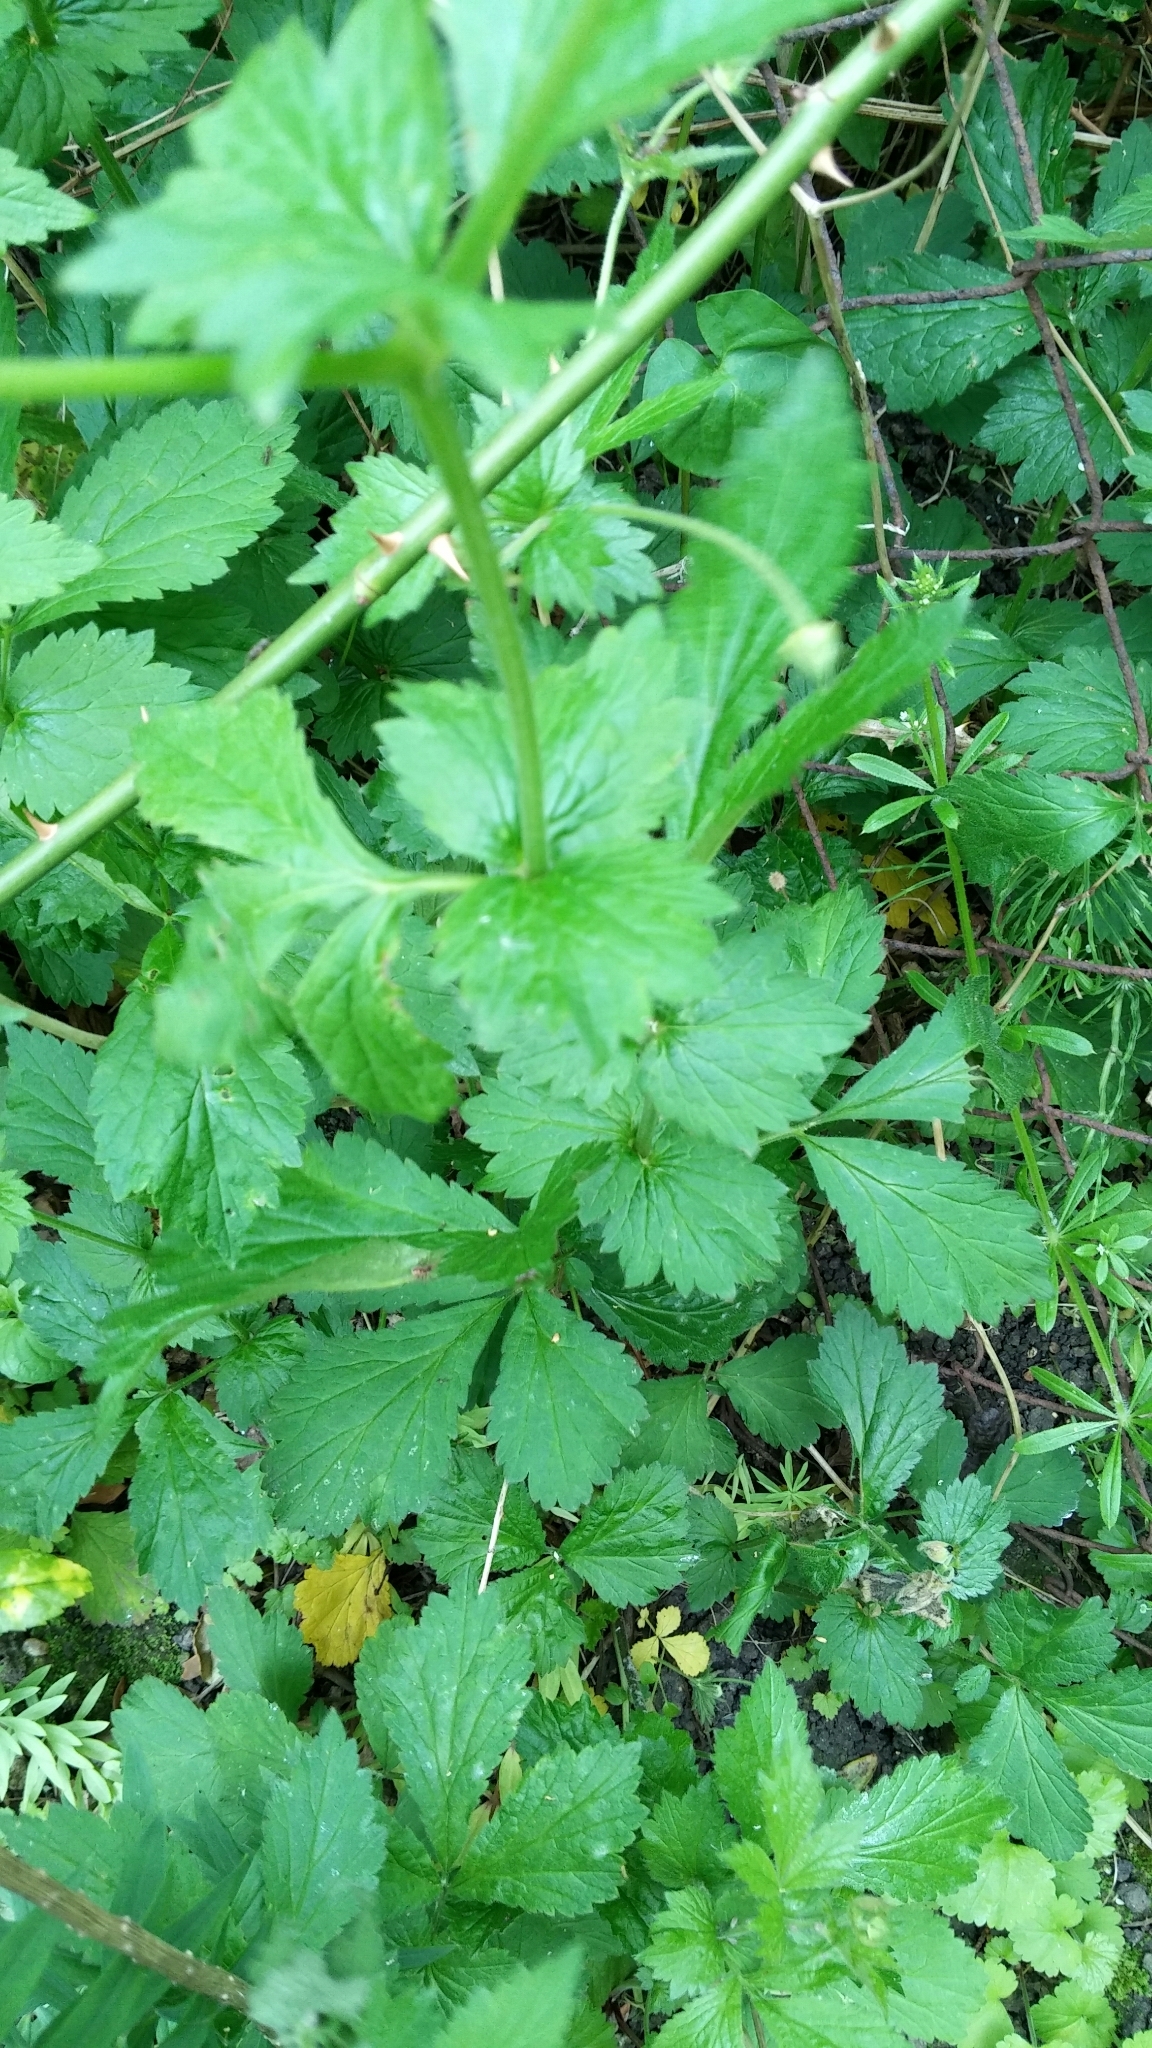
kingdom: Plantae
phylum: Tracheophyta
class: Magnoliopsida
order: Rosales
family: Rosaceae
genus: Geum
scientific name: Geum urbanum
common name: Wood avens
